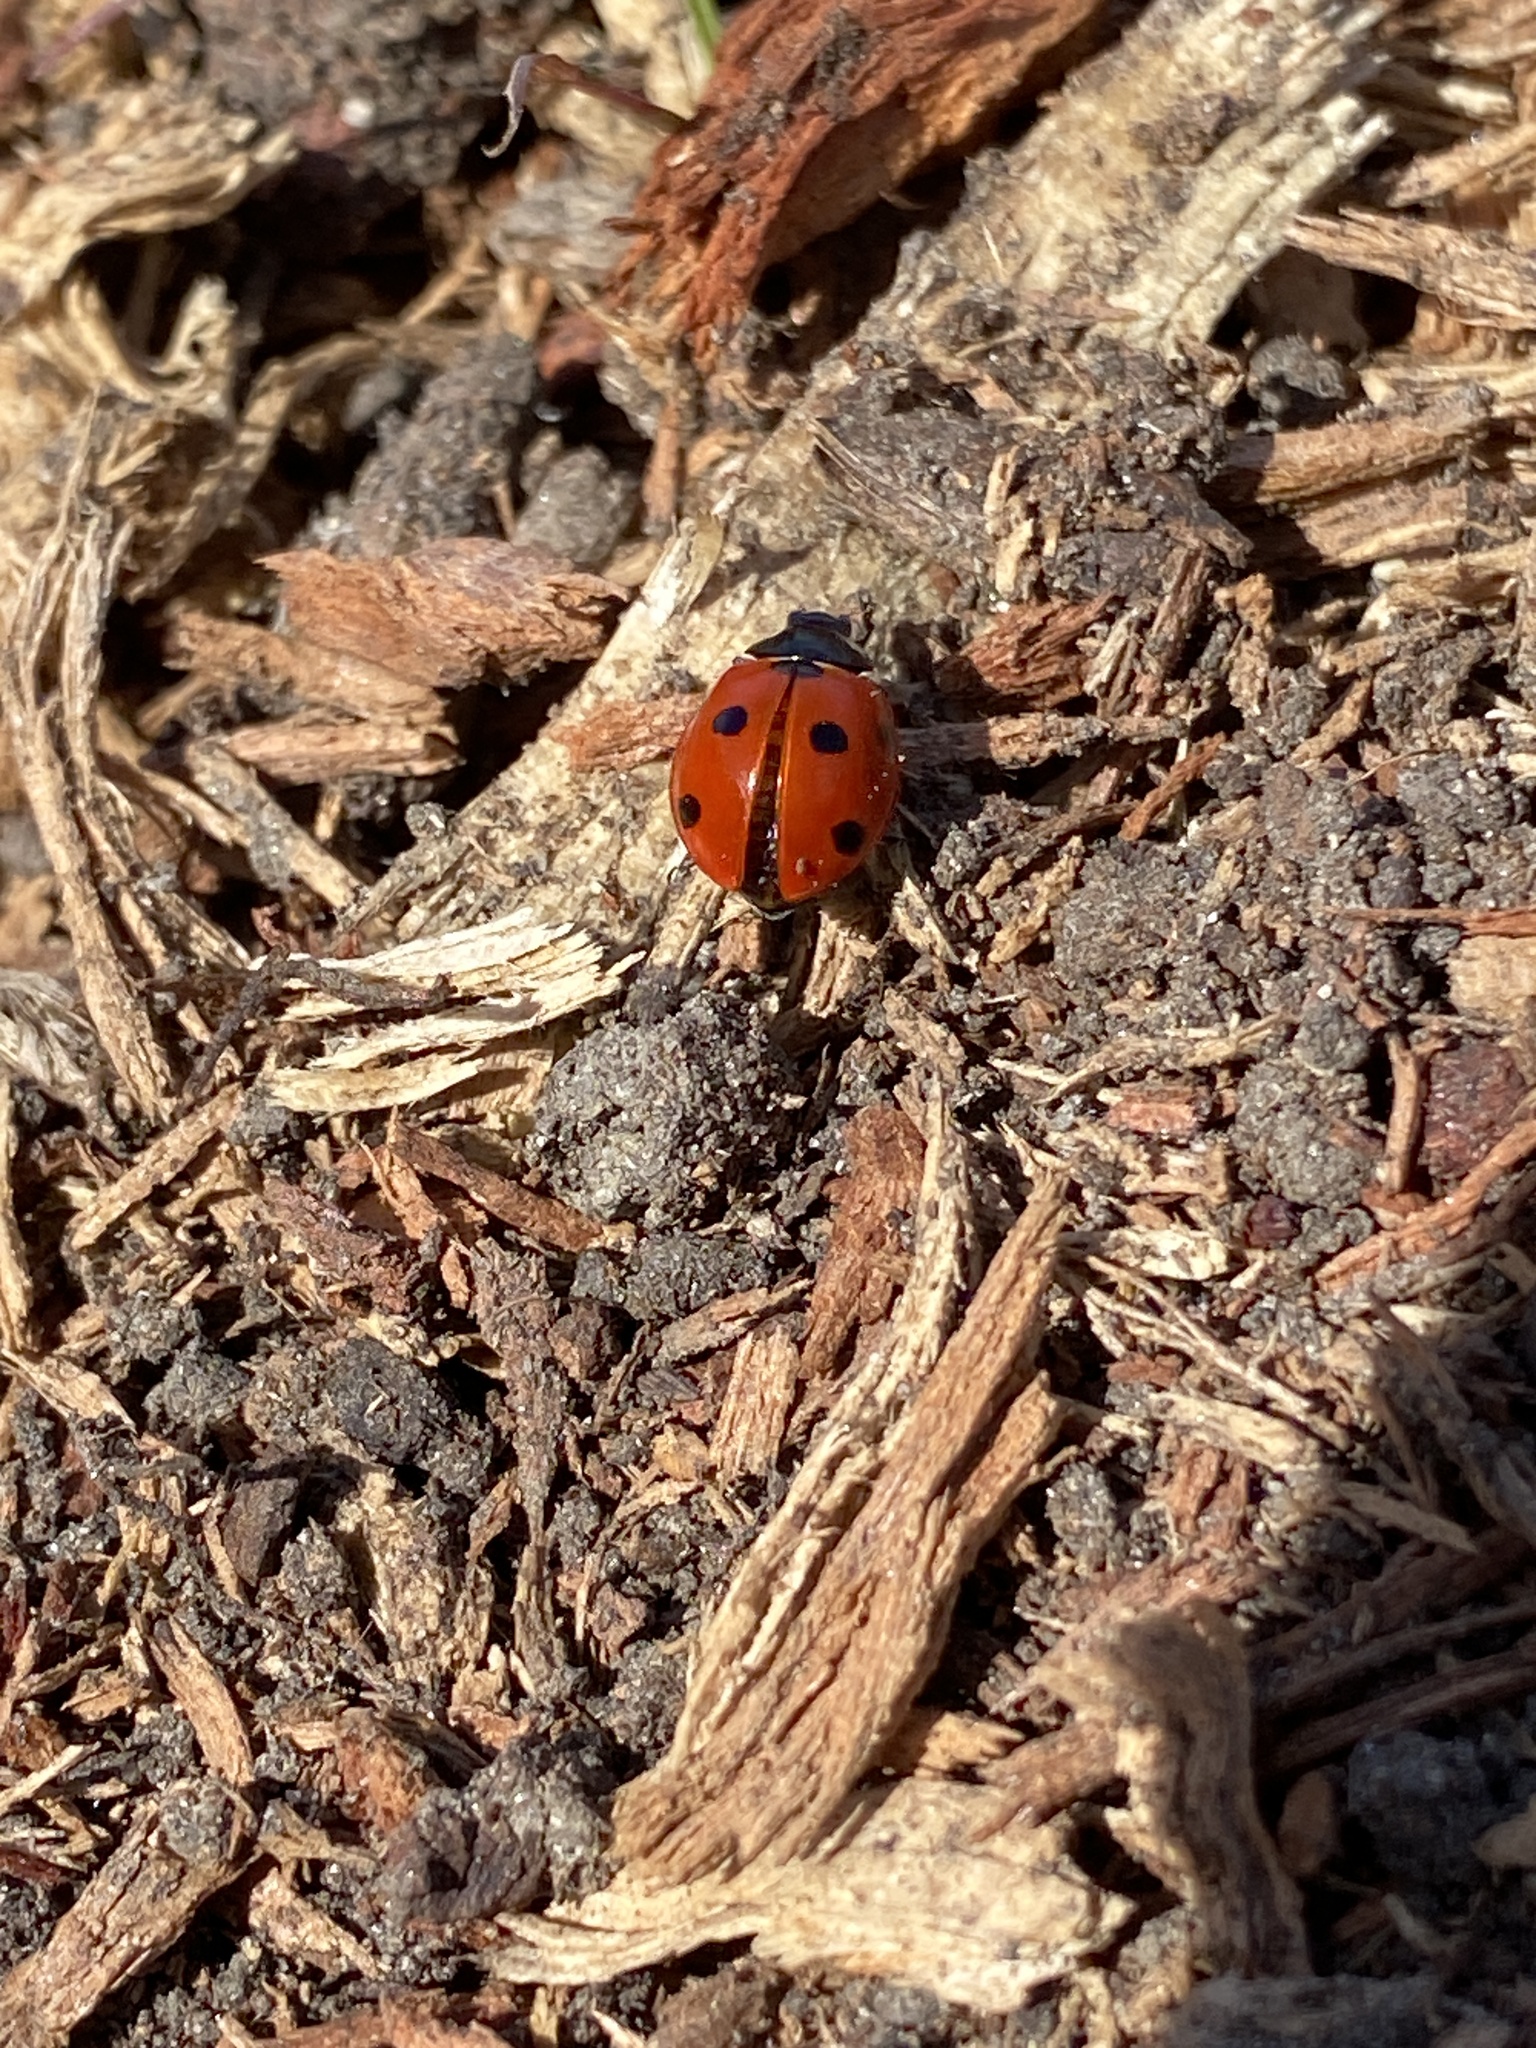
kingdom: Animalia
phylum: Arthropoda
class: Insecta
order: Coleoptera
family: Coccinellidae
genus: Coccinella
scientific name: Coccinella septempunctata
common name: Sevenspotted lady beetle
